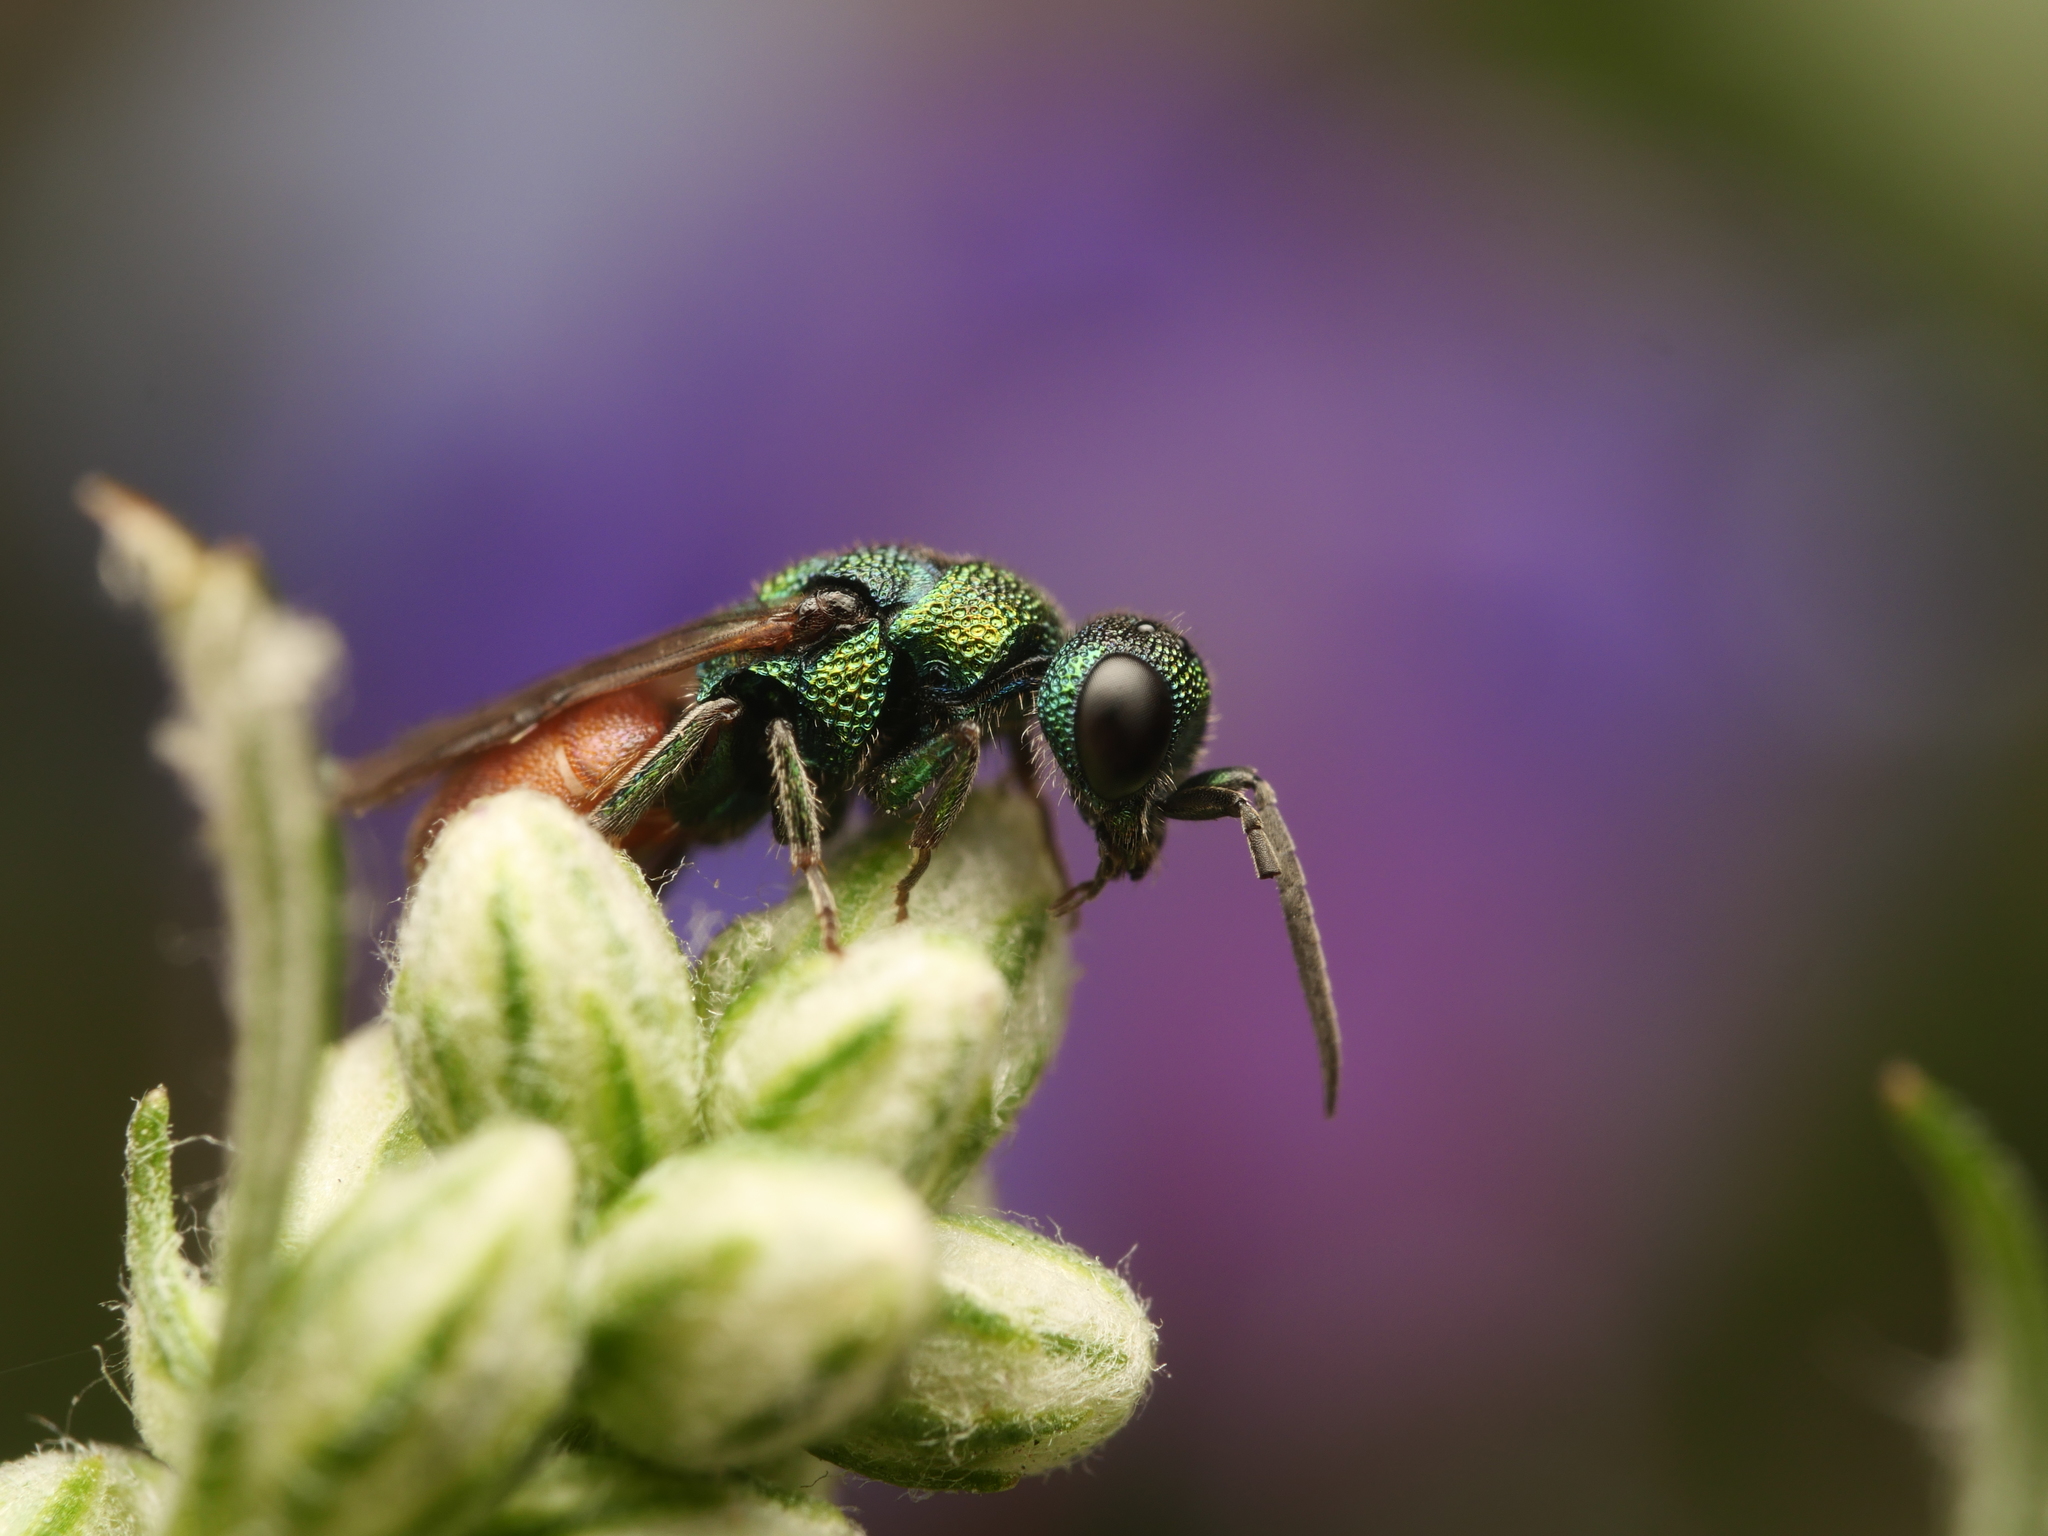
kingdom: Animalia
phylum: Arthropoda
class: Insecta
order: Hymenoptera
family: Chrysididae
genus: Hedychridium
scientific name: Hedychridium roseum
